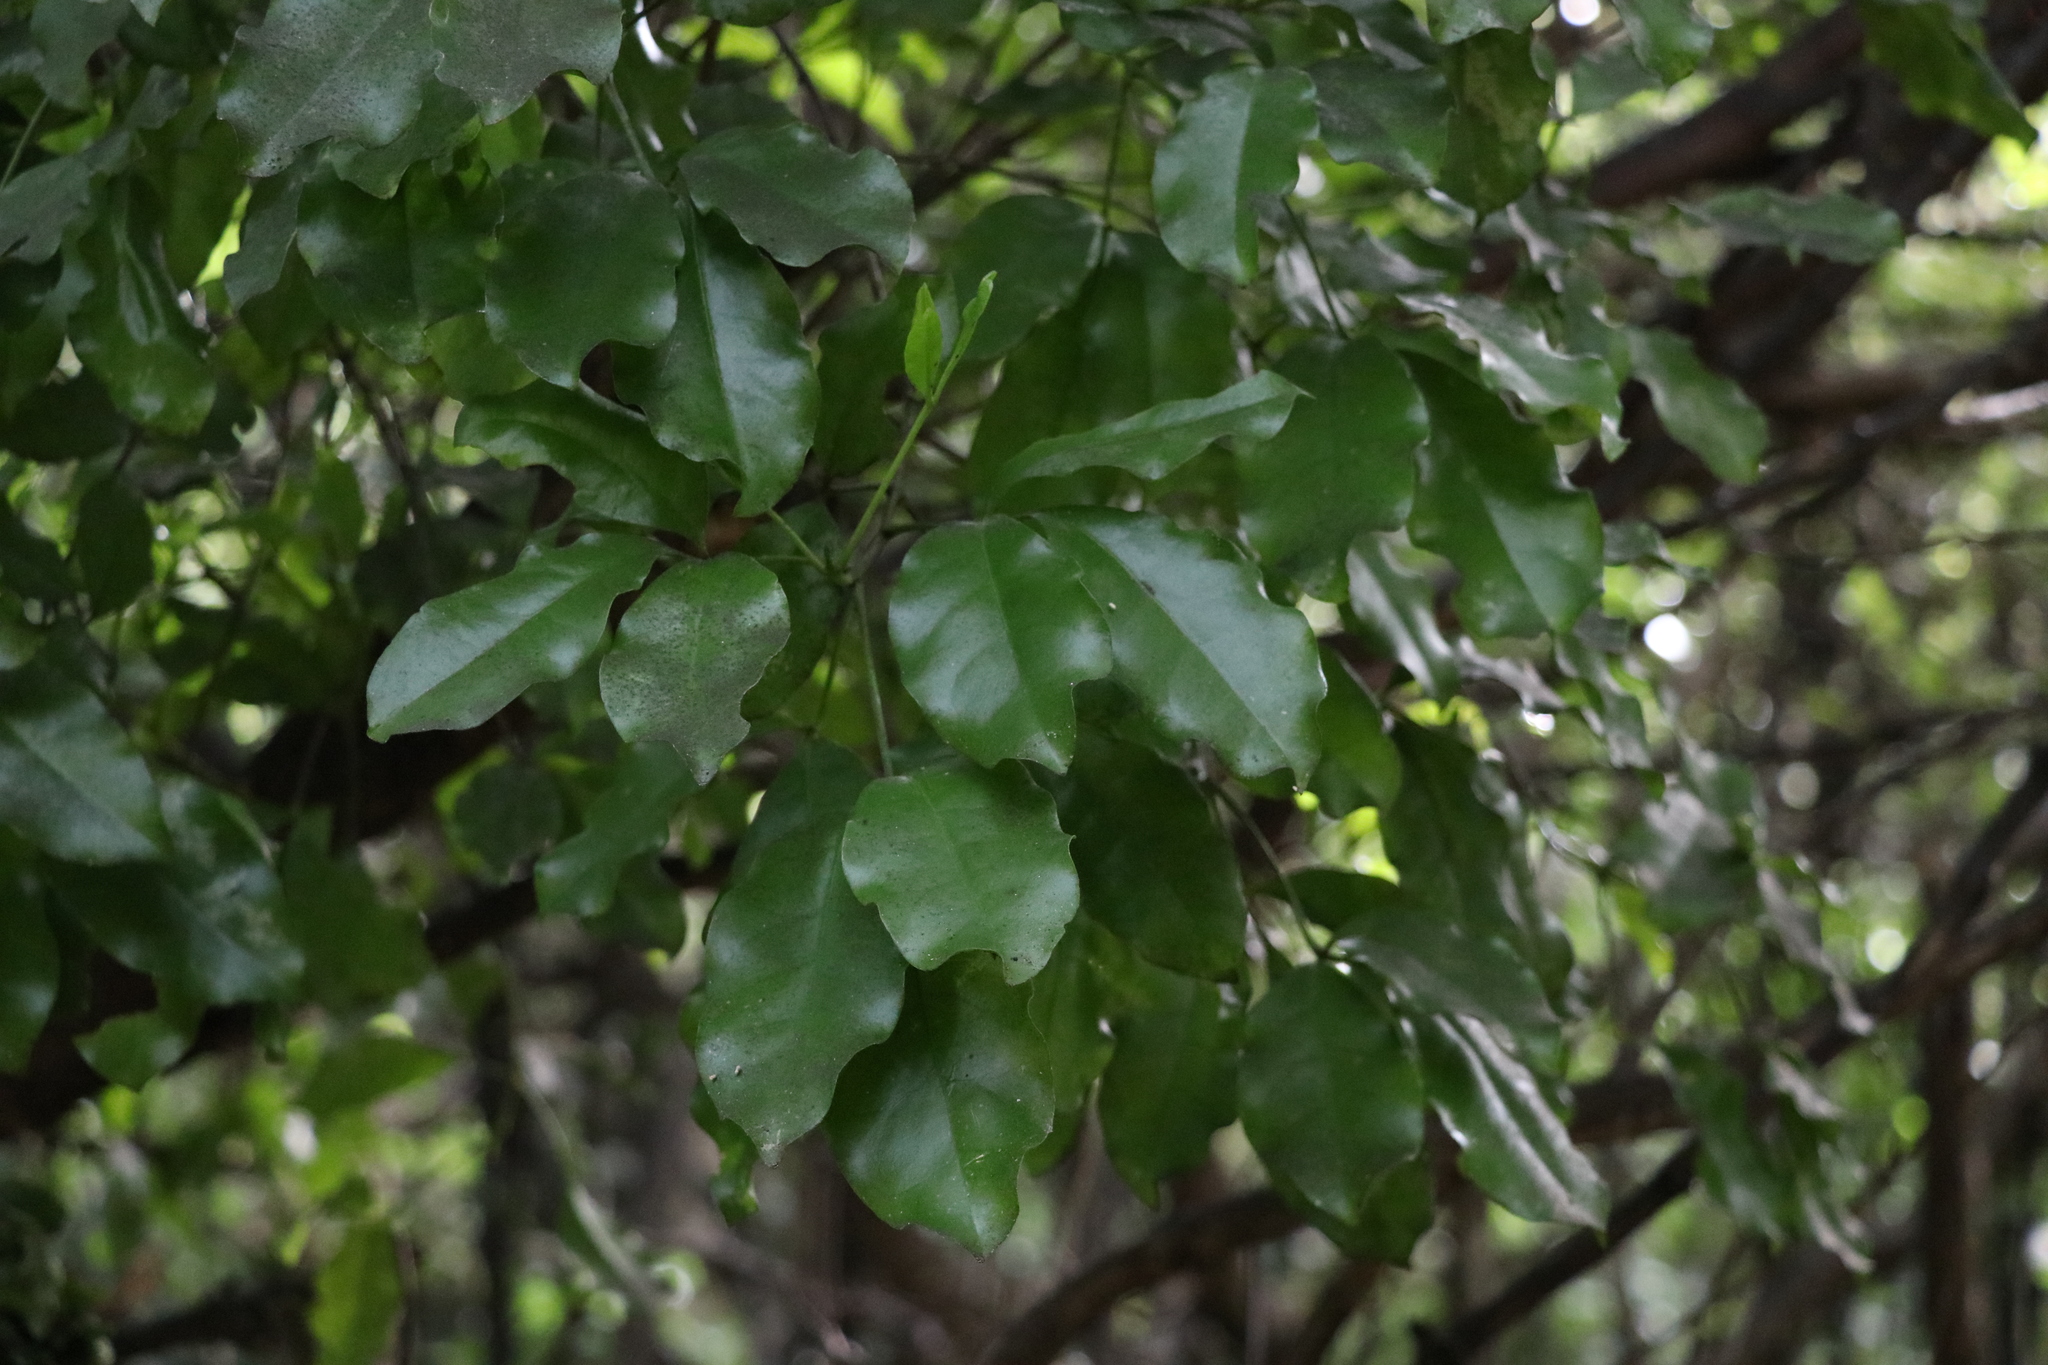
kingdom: Plantae
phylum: Tracheophyta
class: Magnoliopsida
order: Sapindales
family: Rutaceae
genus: Melicope
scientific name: Melicope ternata
